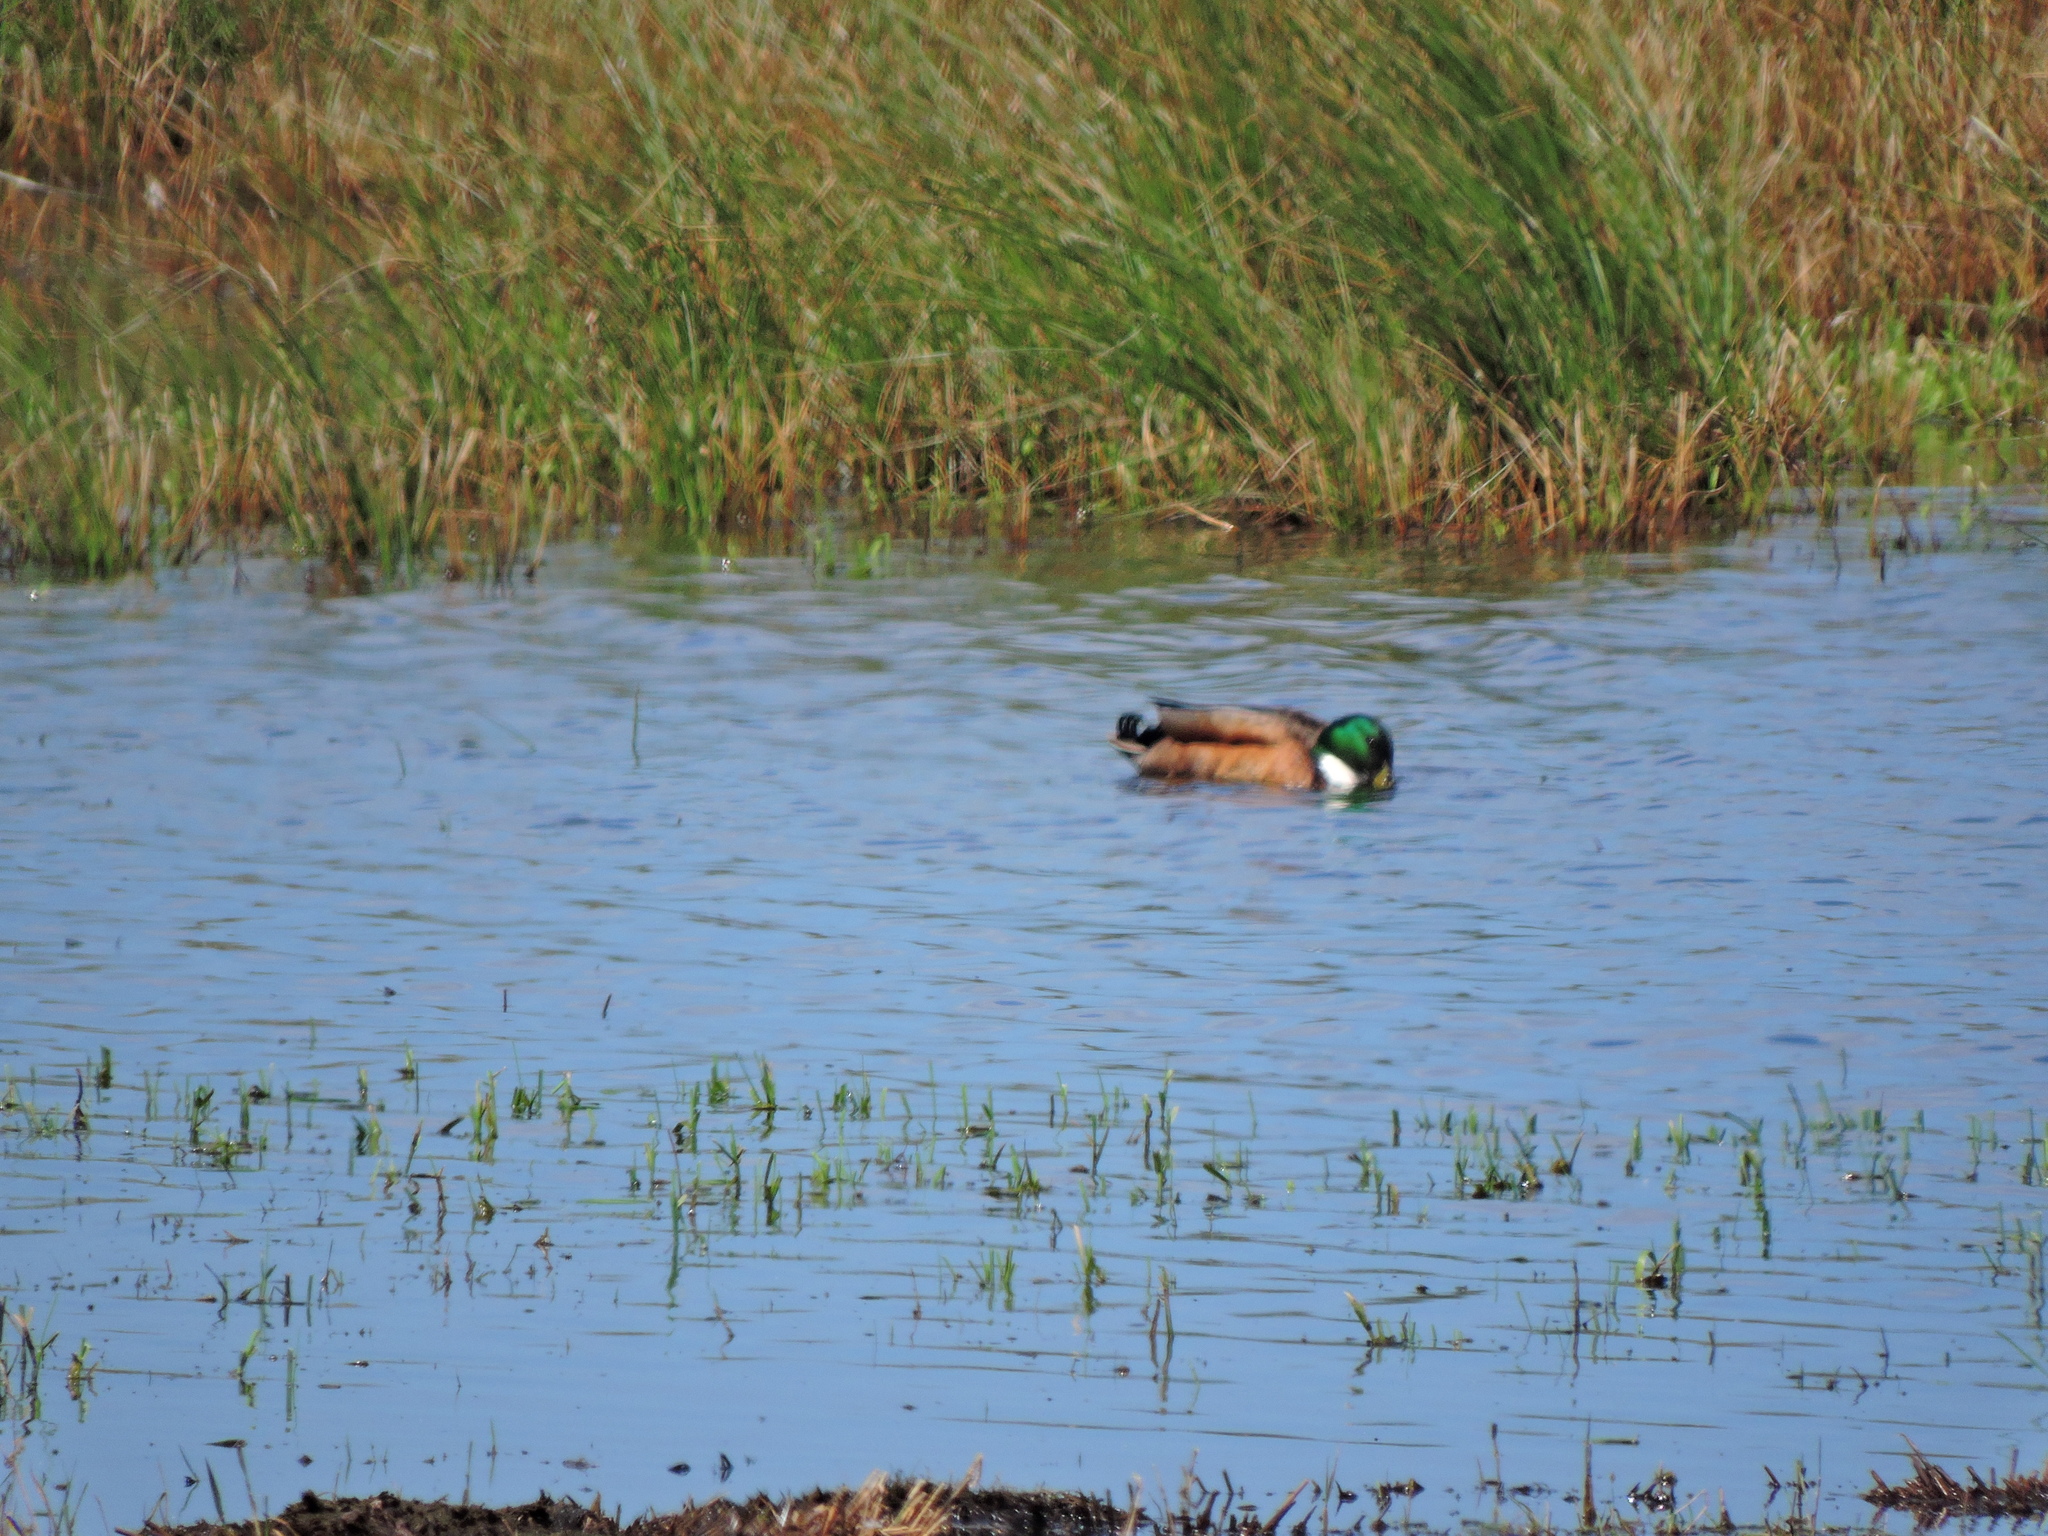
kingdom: Animalia
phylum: Chordata
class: Aves
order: Anseriformes
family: Anatidae
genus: Anas
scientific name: Anas platyrhynchos
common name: Mallard
